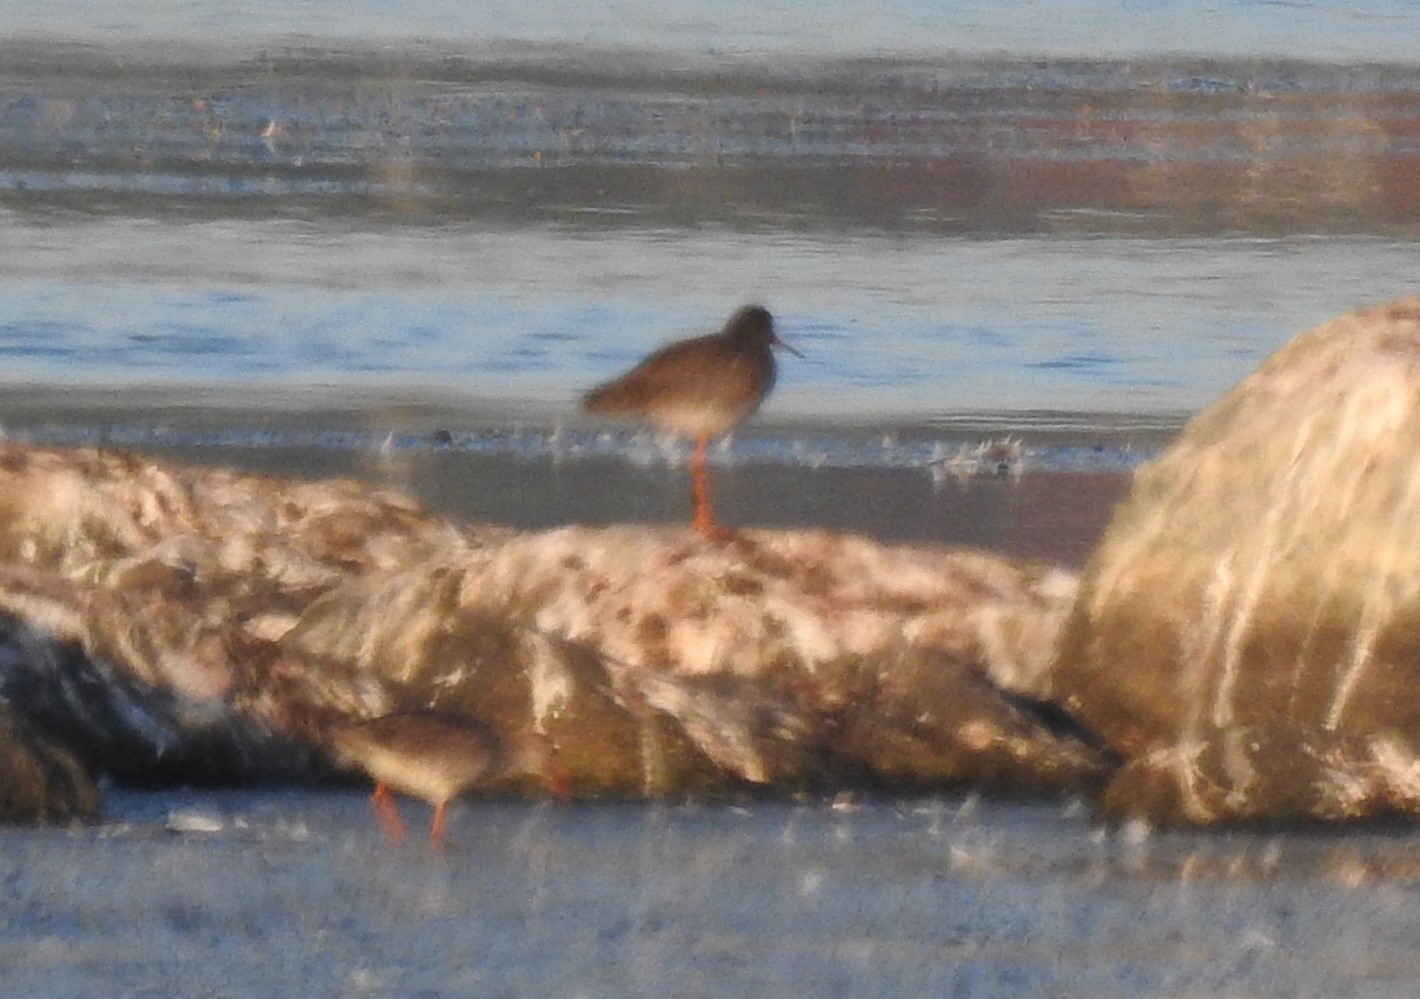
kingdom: Animalia
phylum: Chordata
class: Aves
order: Charadriiformes
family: Scolopacidae
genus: Tringa
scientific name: Tringa totanus
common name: Common redshank
